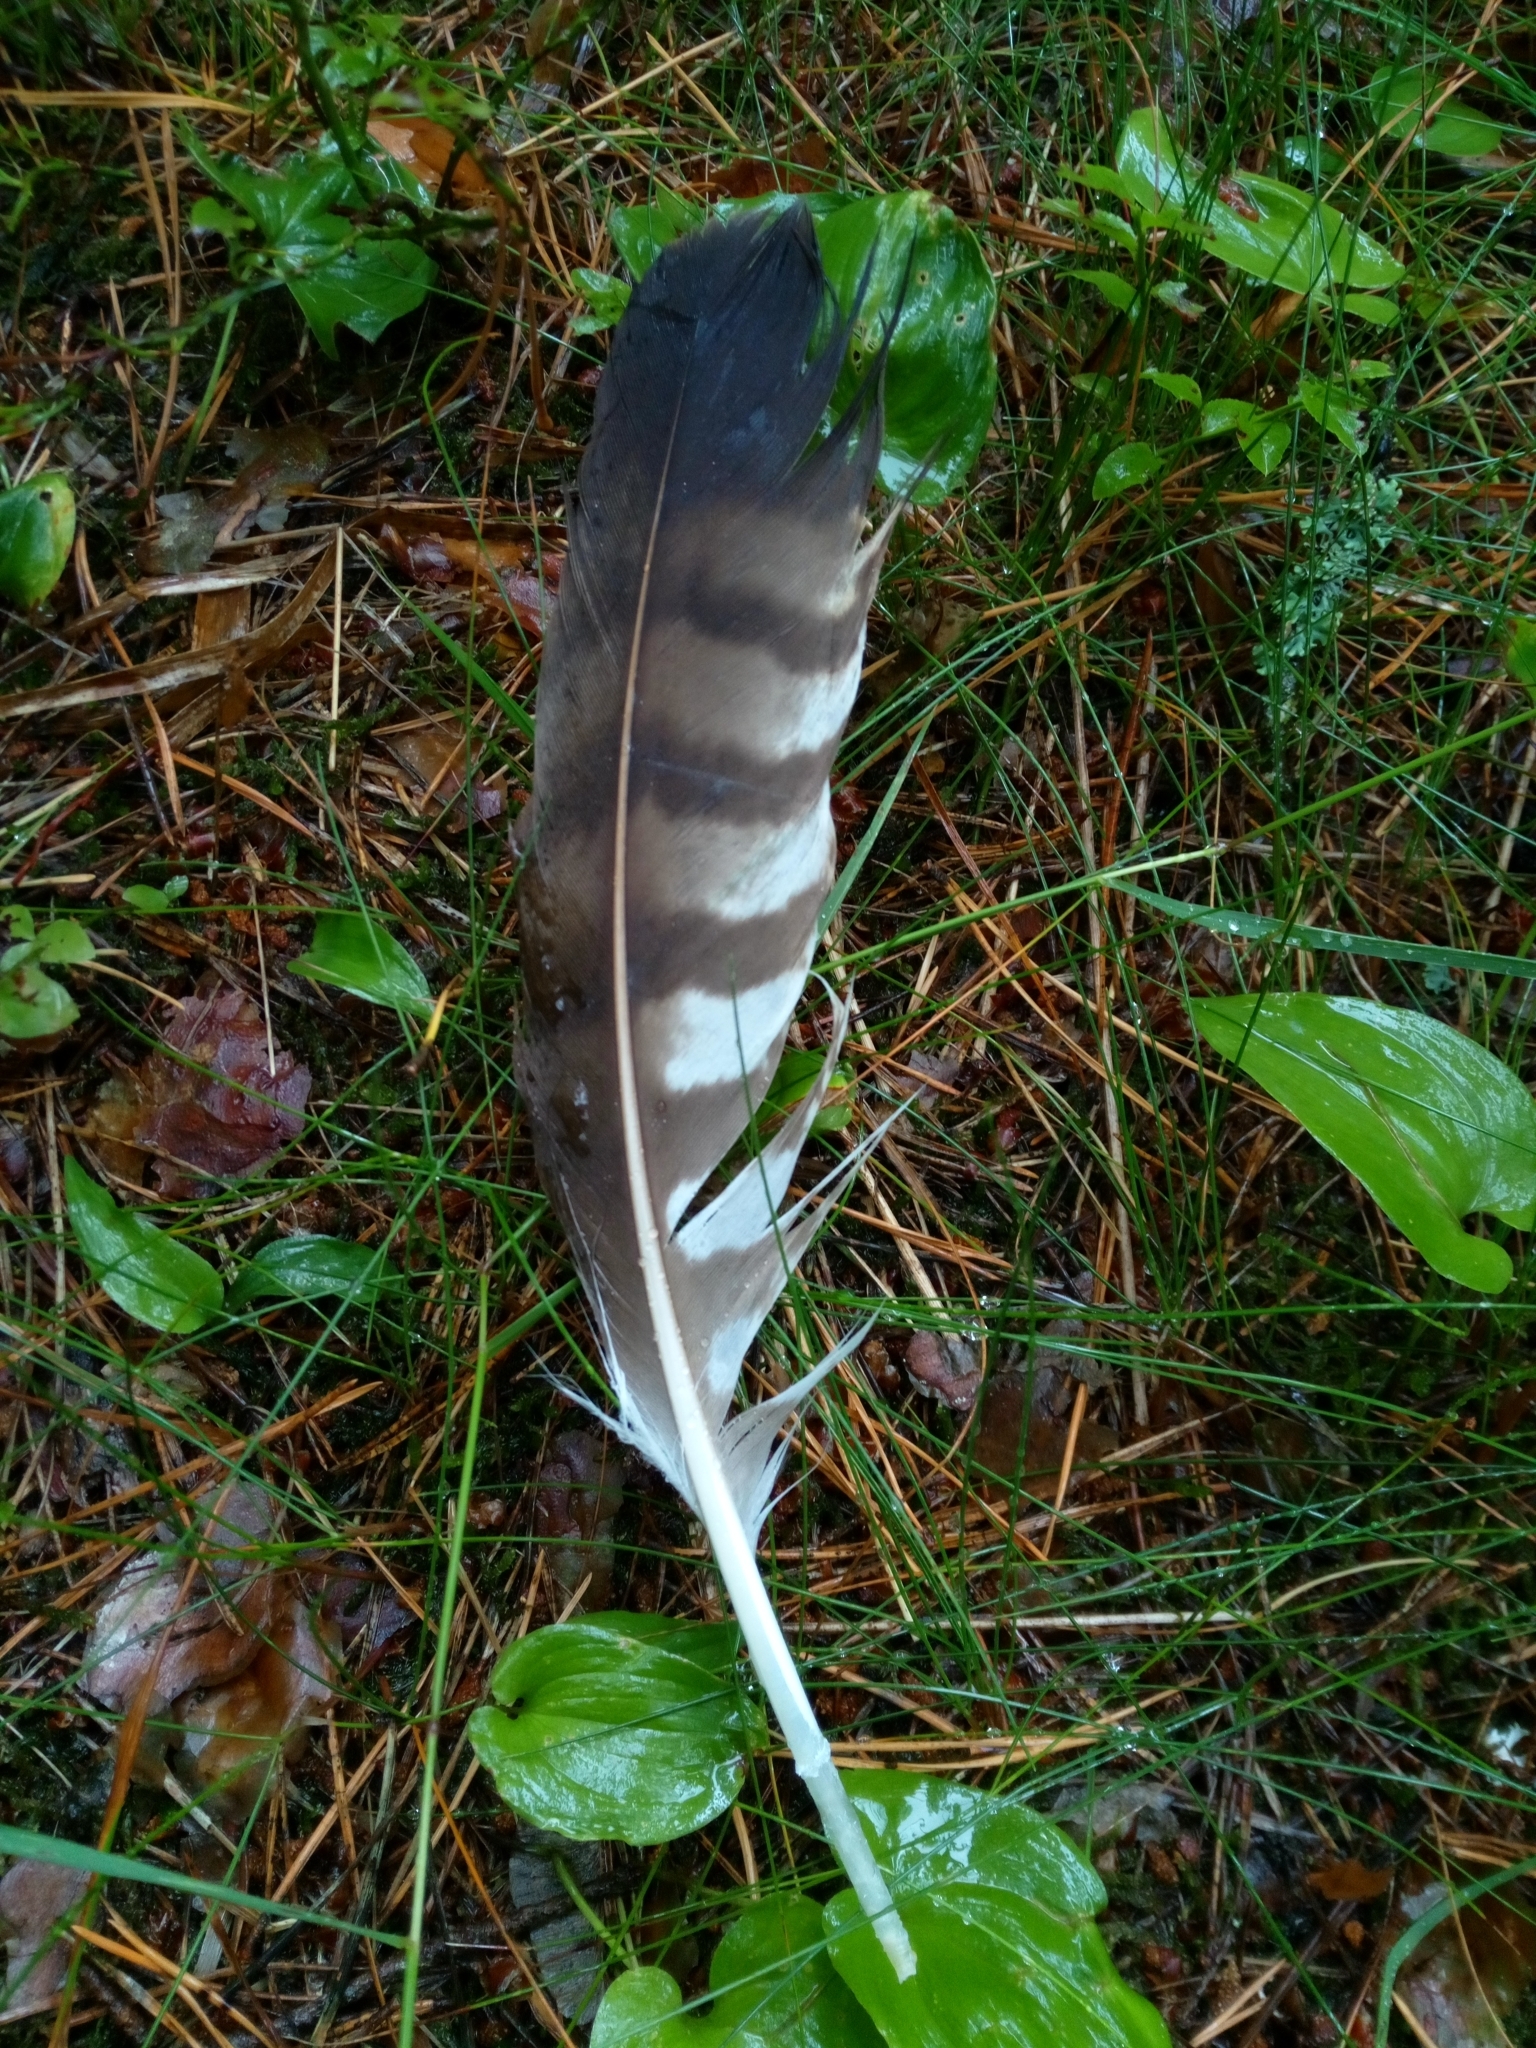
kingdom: Animalia
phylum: Chordata
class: Aves
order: Accipitriformes
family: Accipitridae
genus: Buteo
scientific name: Buteo buteo
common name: Common buzzard
